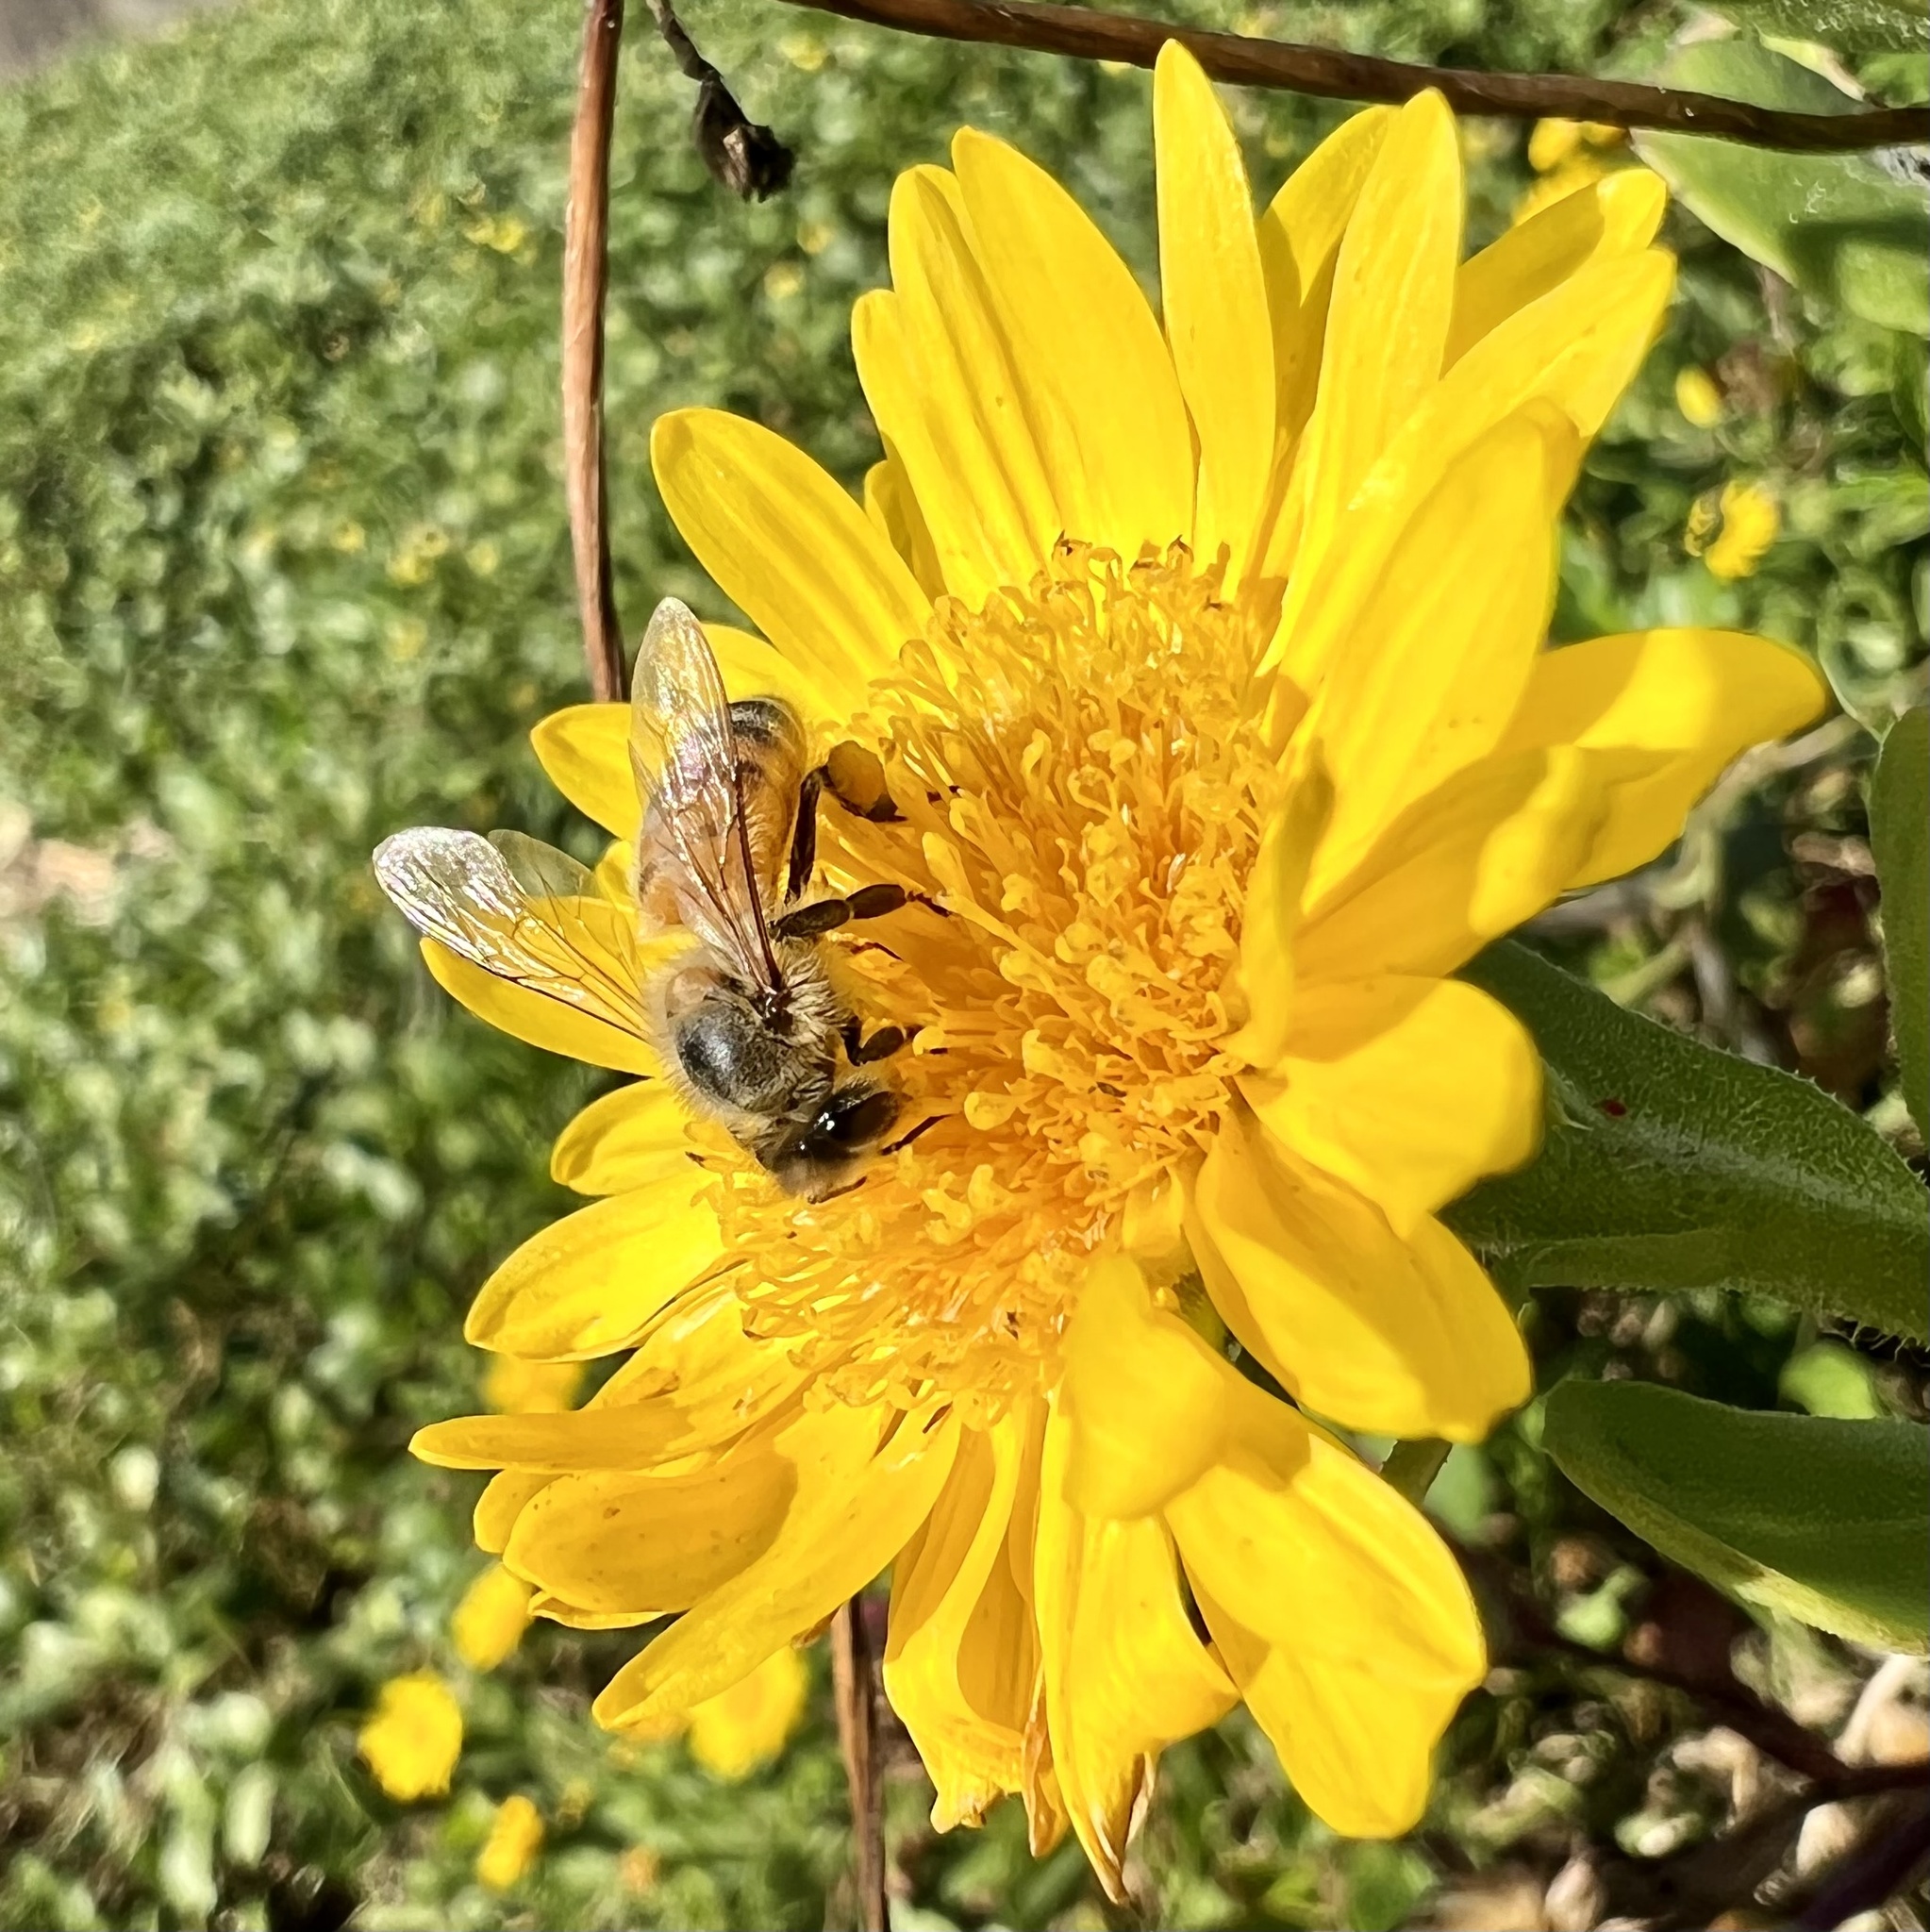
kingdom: Animalia
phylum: Arthropoda
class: Insecta
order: Hymenoptera
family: Apidae
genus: Apis
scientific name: Apis mellifera
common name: Honey bee
